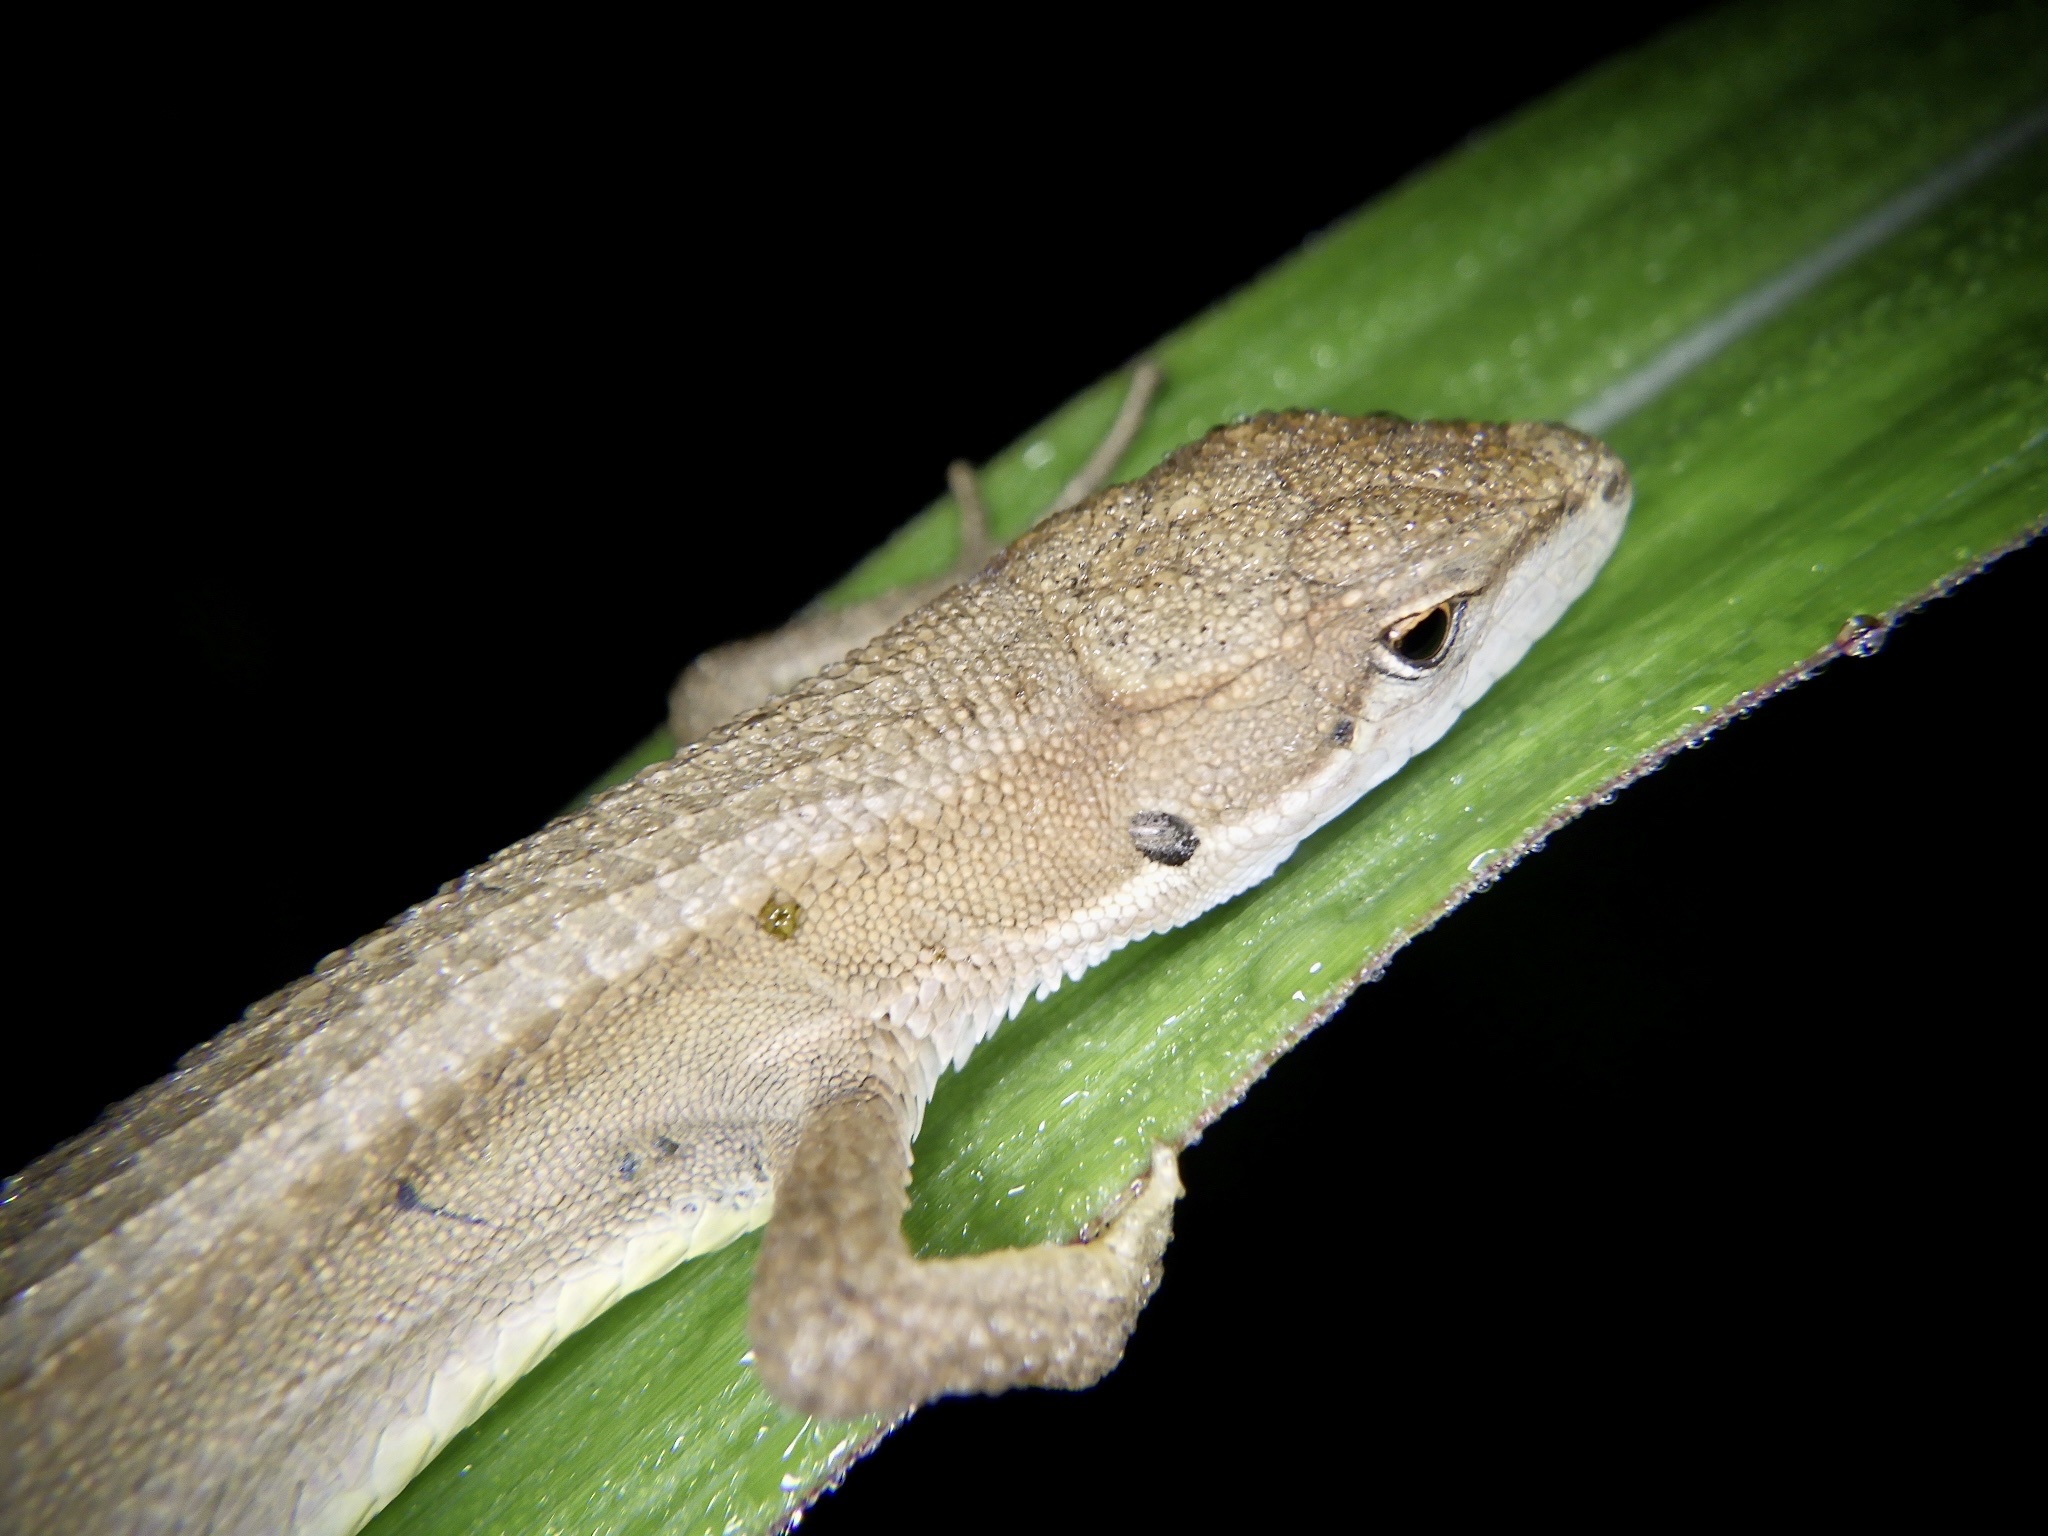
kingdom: Animalia
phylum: Chordata
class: Squamata
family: Lacertidae
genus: Takydromus
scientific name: Takydromus tachydromoides
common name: Japanese grass lizard
